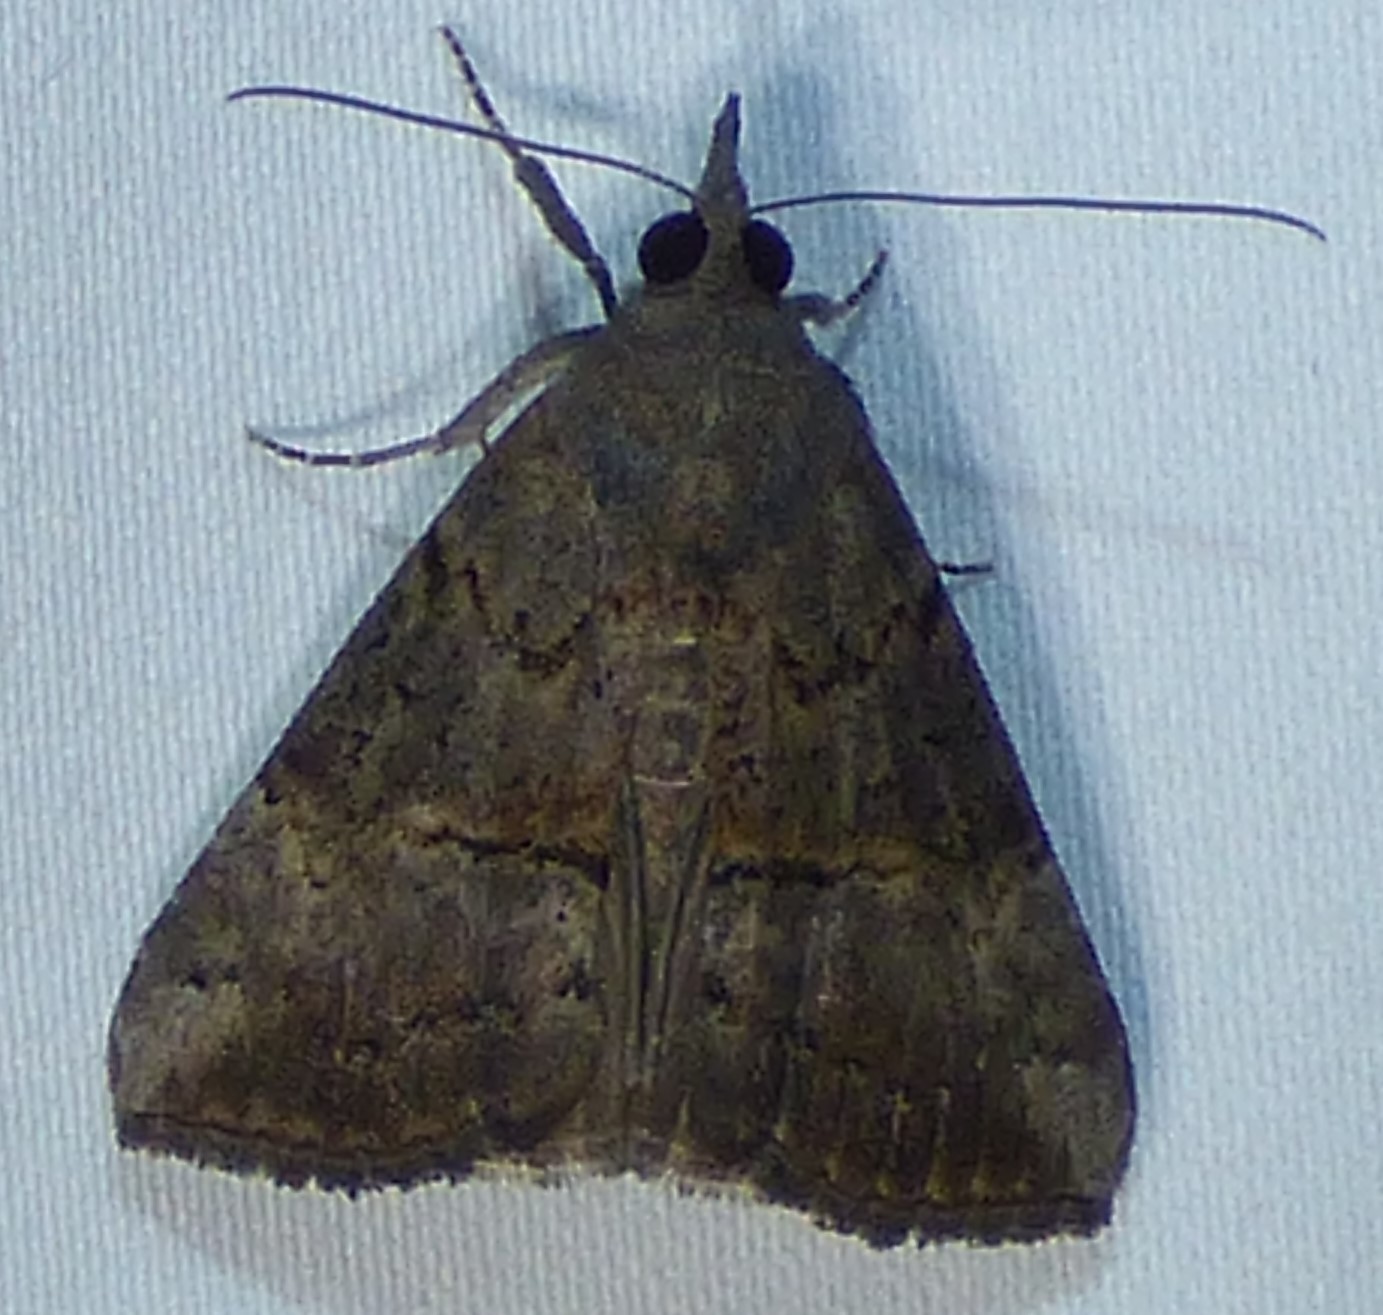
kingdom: Animalia
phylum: Arthropoda
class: Insecta
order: Lepidoptera
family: Erebidae
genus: Hypena
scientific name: Hypena scabra
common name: Green cloverworm
